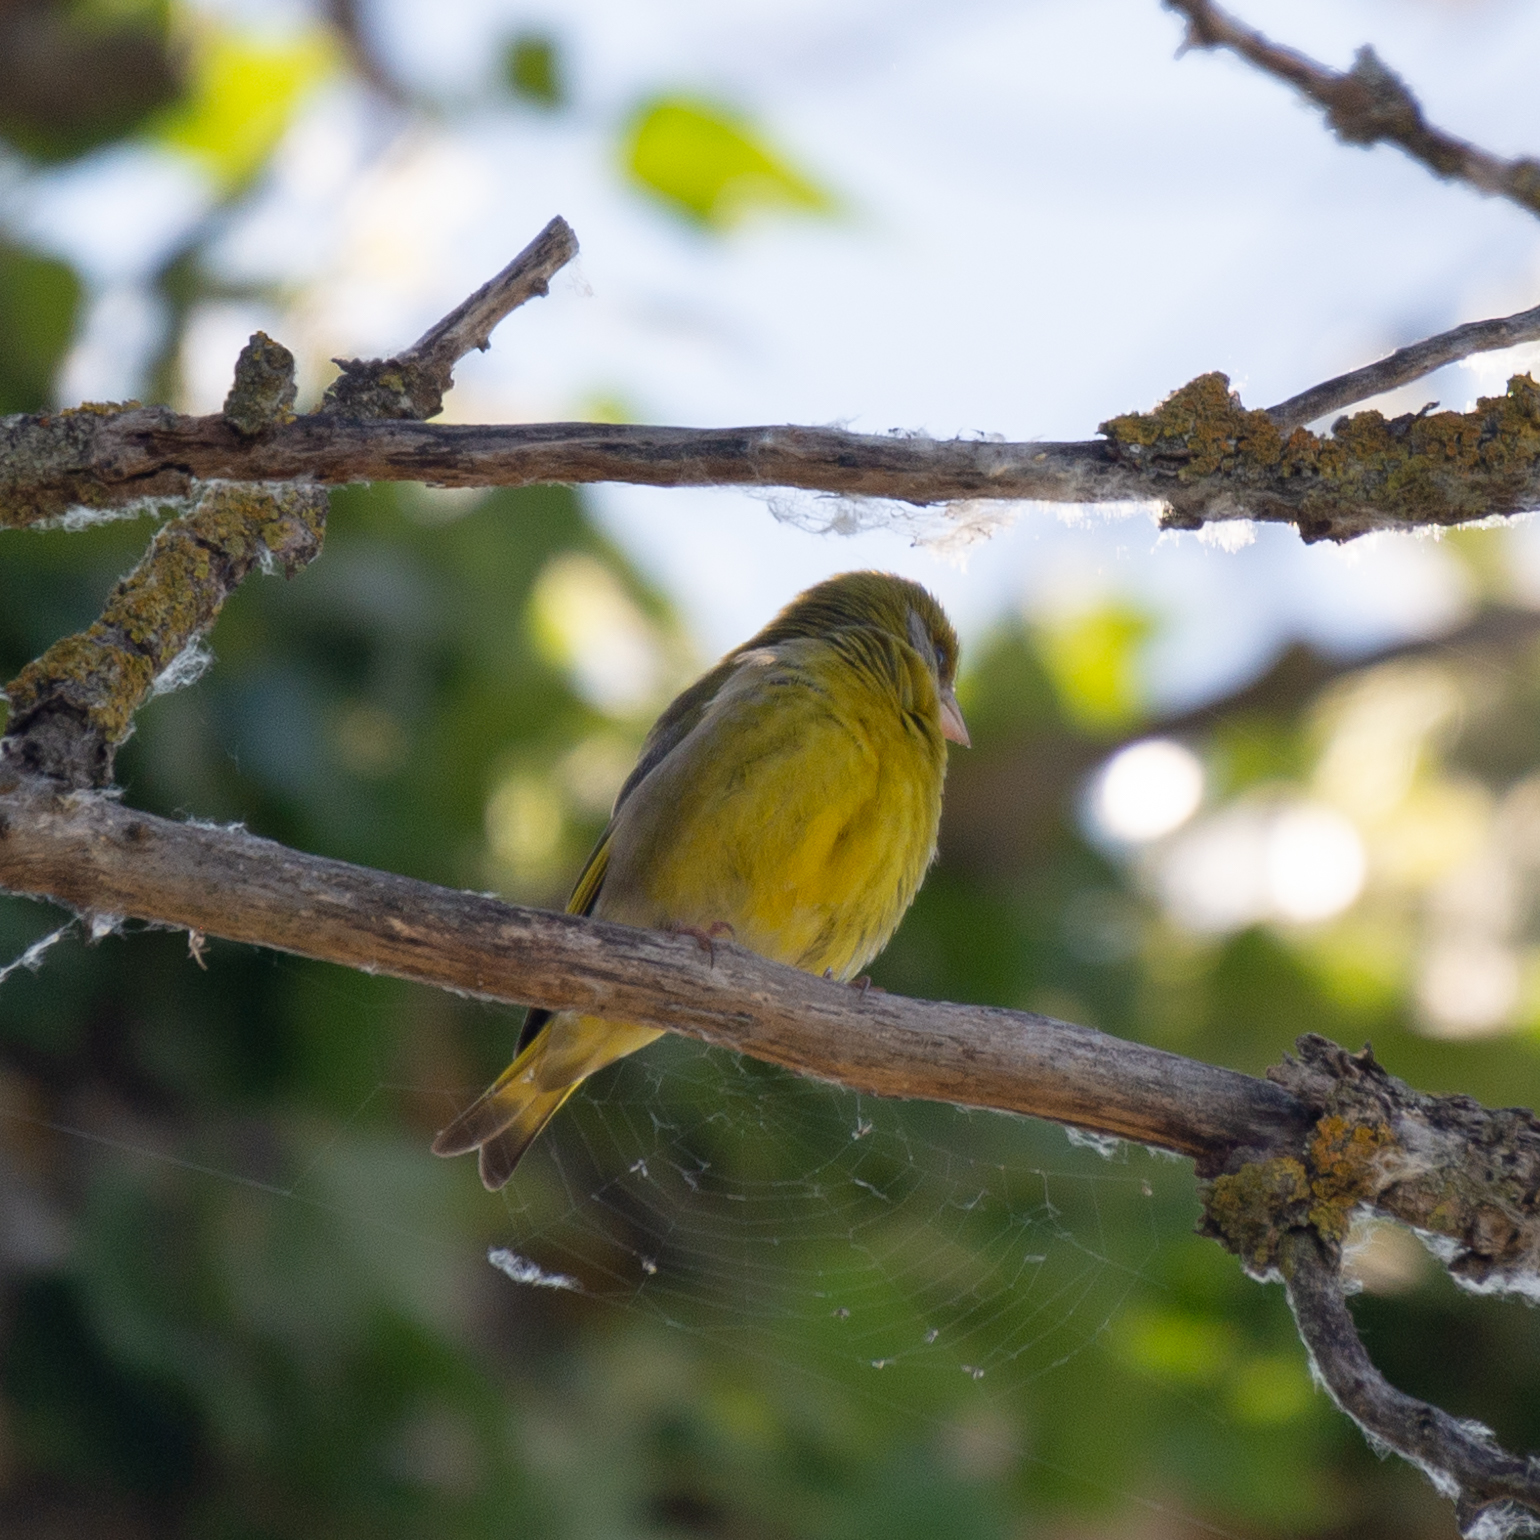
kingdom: Plantae
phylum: Tracheophyta
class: Liliopsida
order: Poales
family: Poaceae
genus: Chloris
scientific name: Chloris chloris
